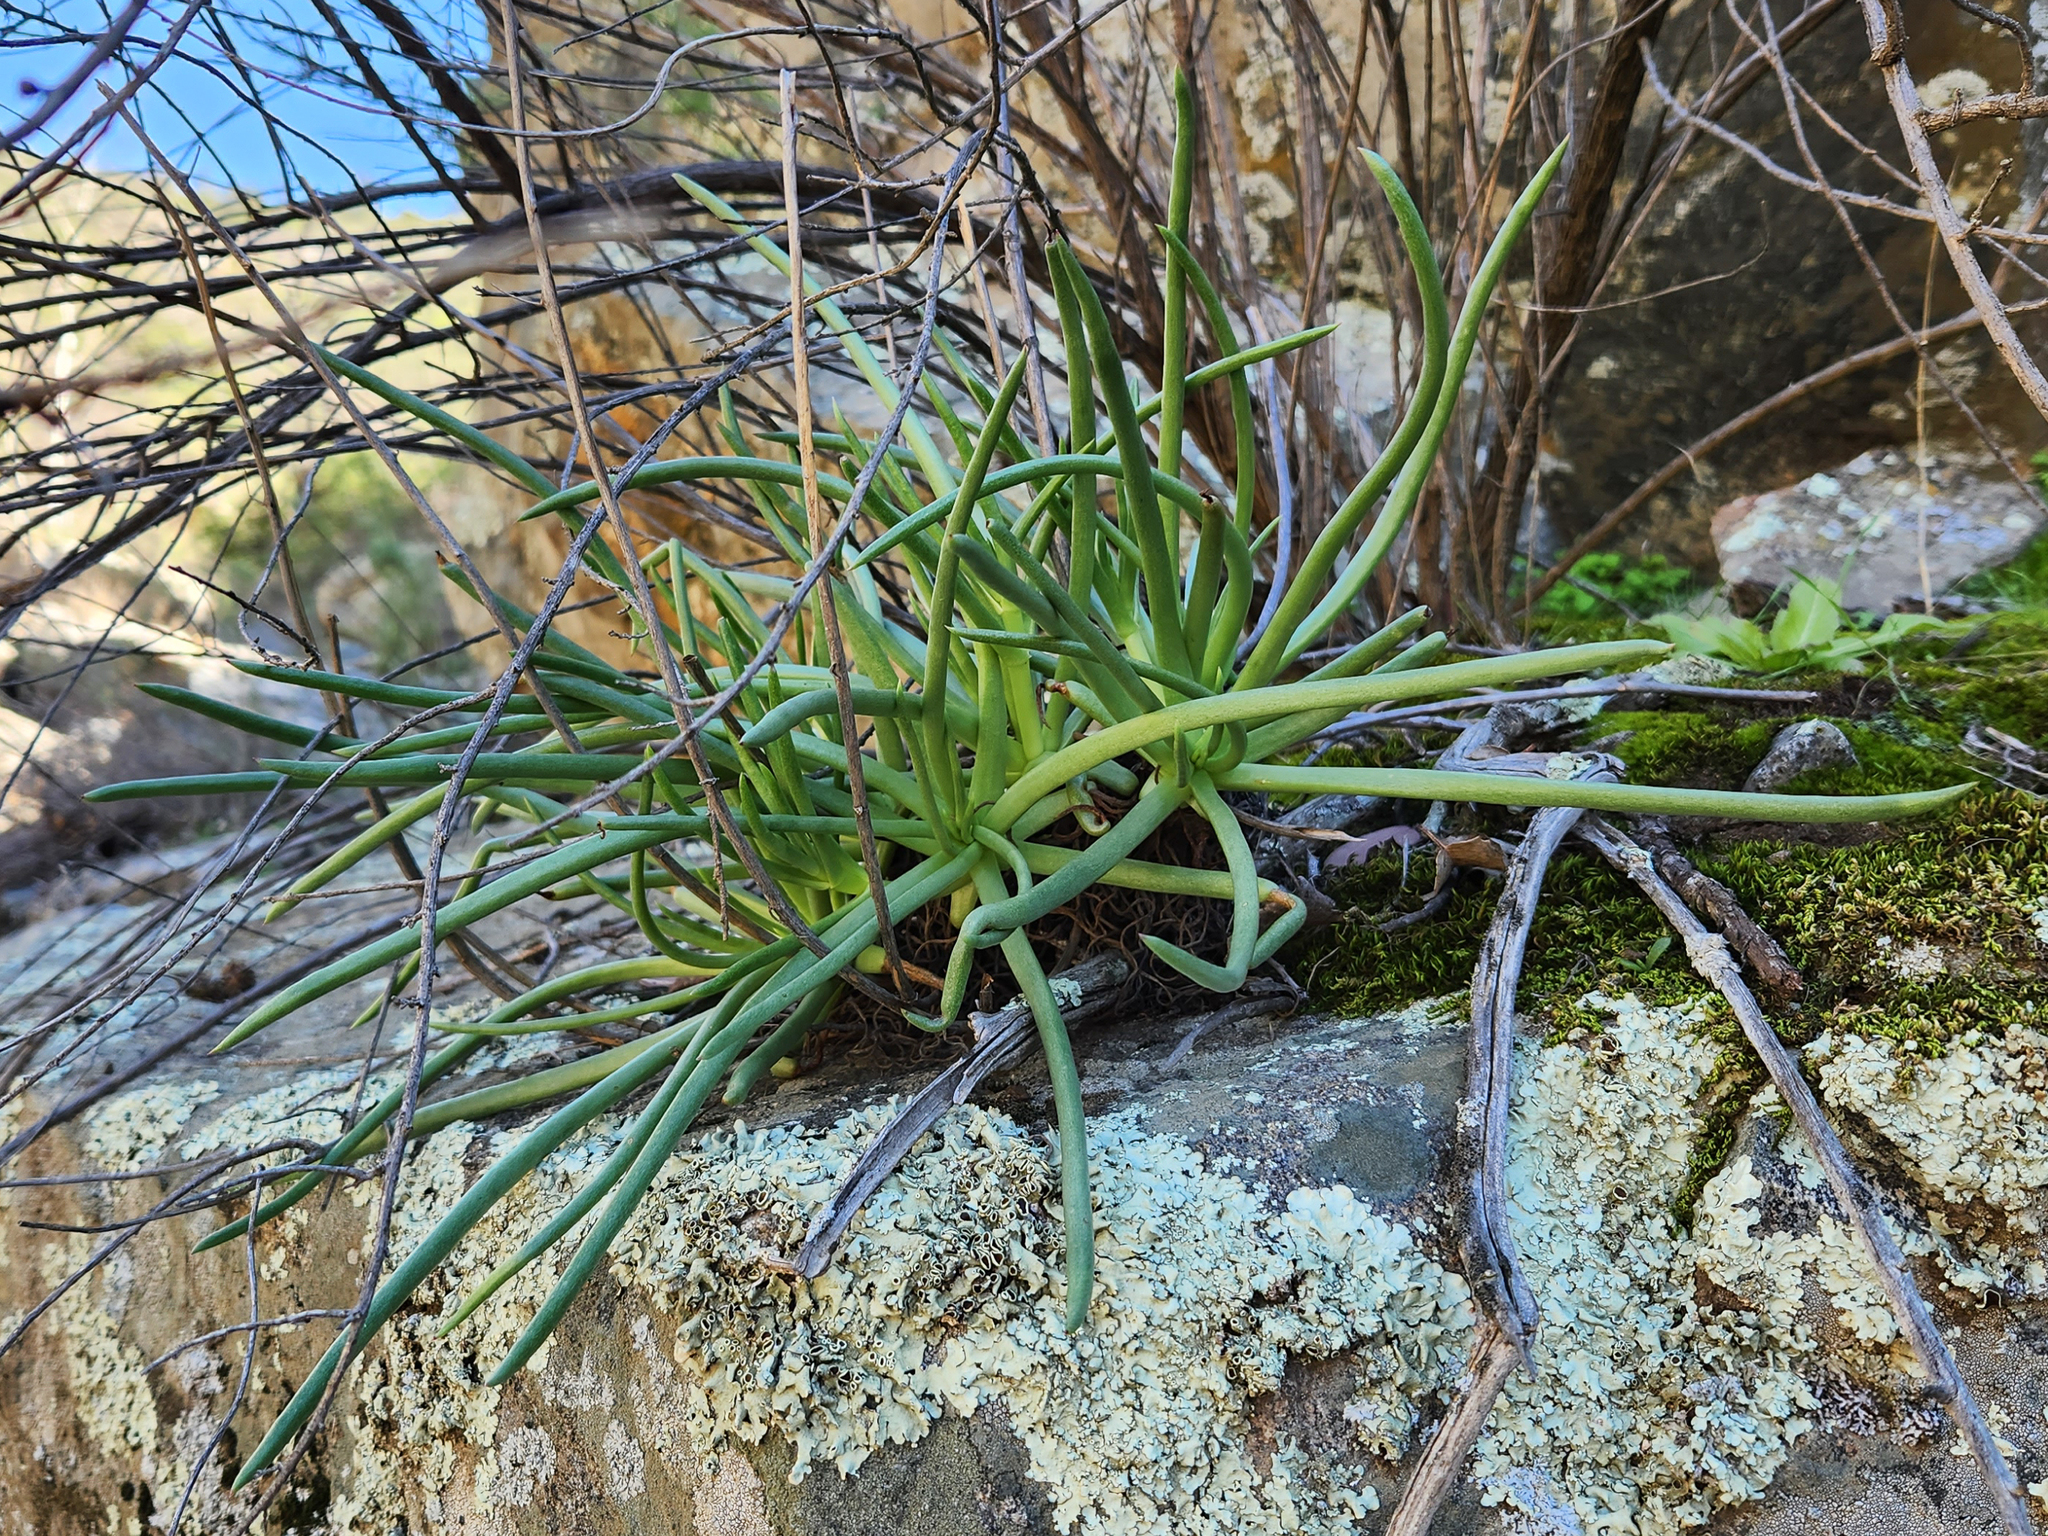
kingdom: Plantae
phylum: Tracheophyta
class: Magnoliopsida
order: Saxifragales
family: Crassulaceae
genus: Dudleya
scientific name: Dudleya edulis
